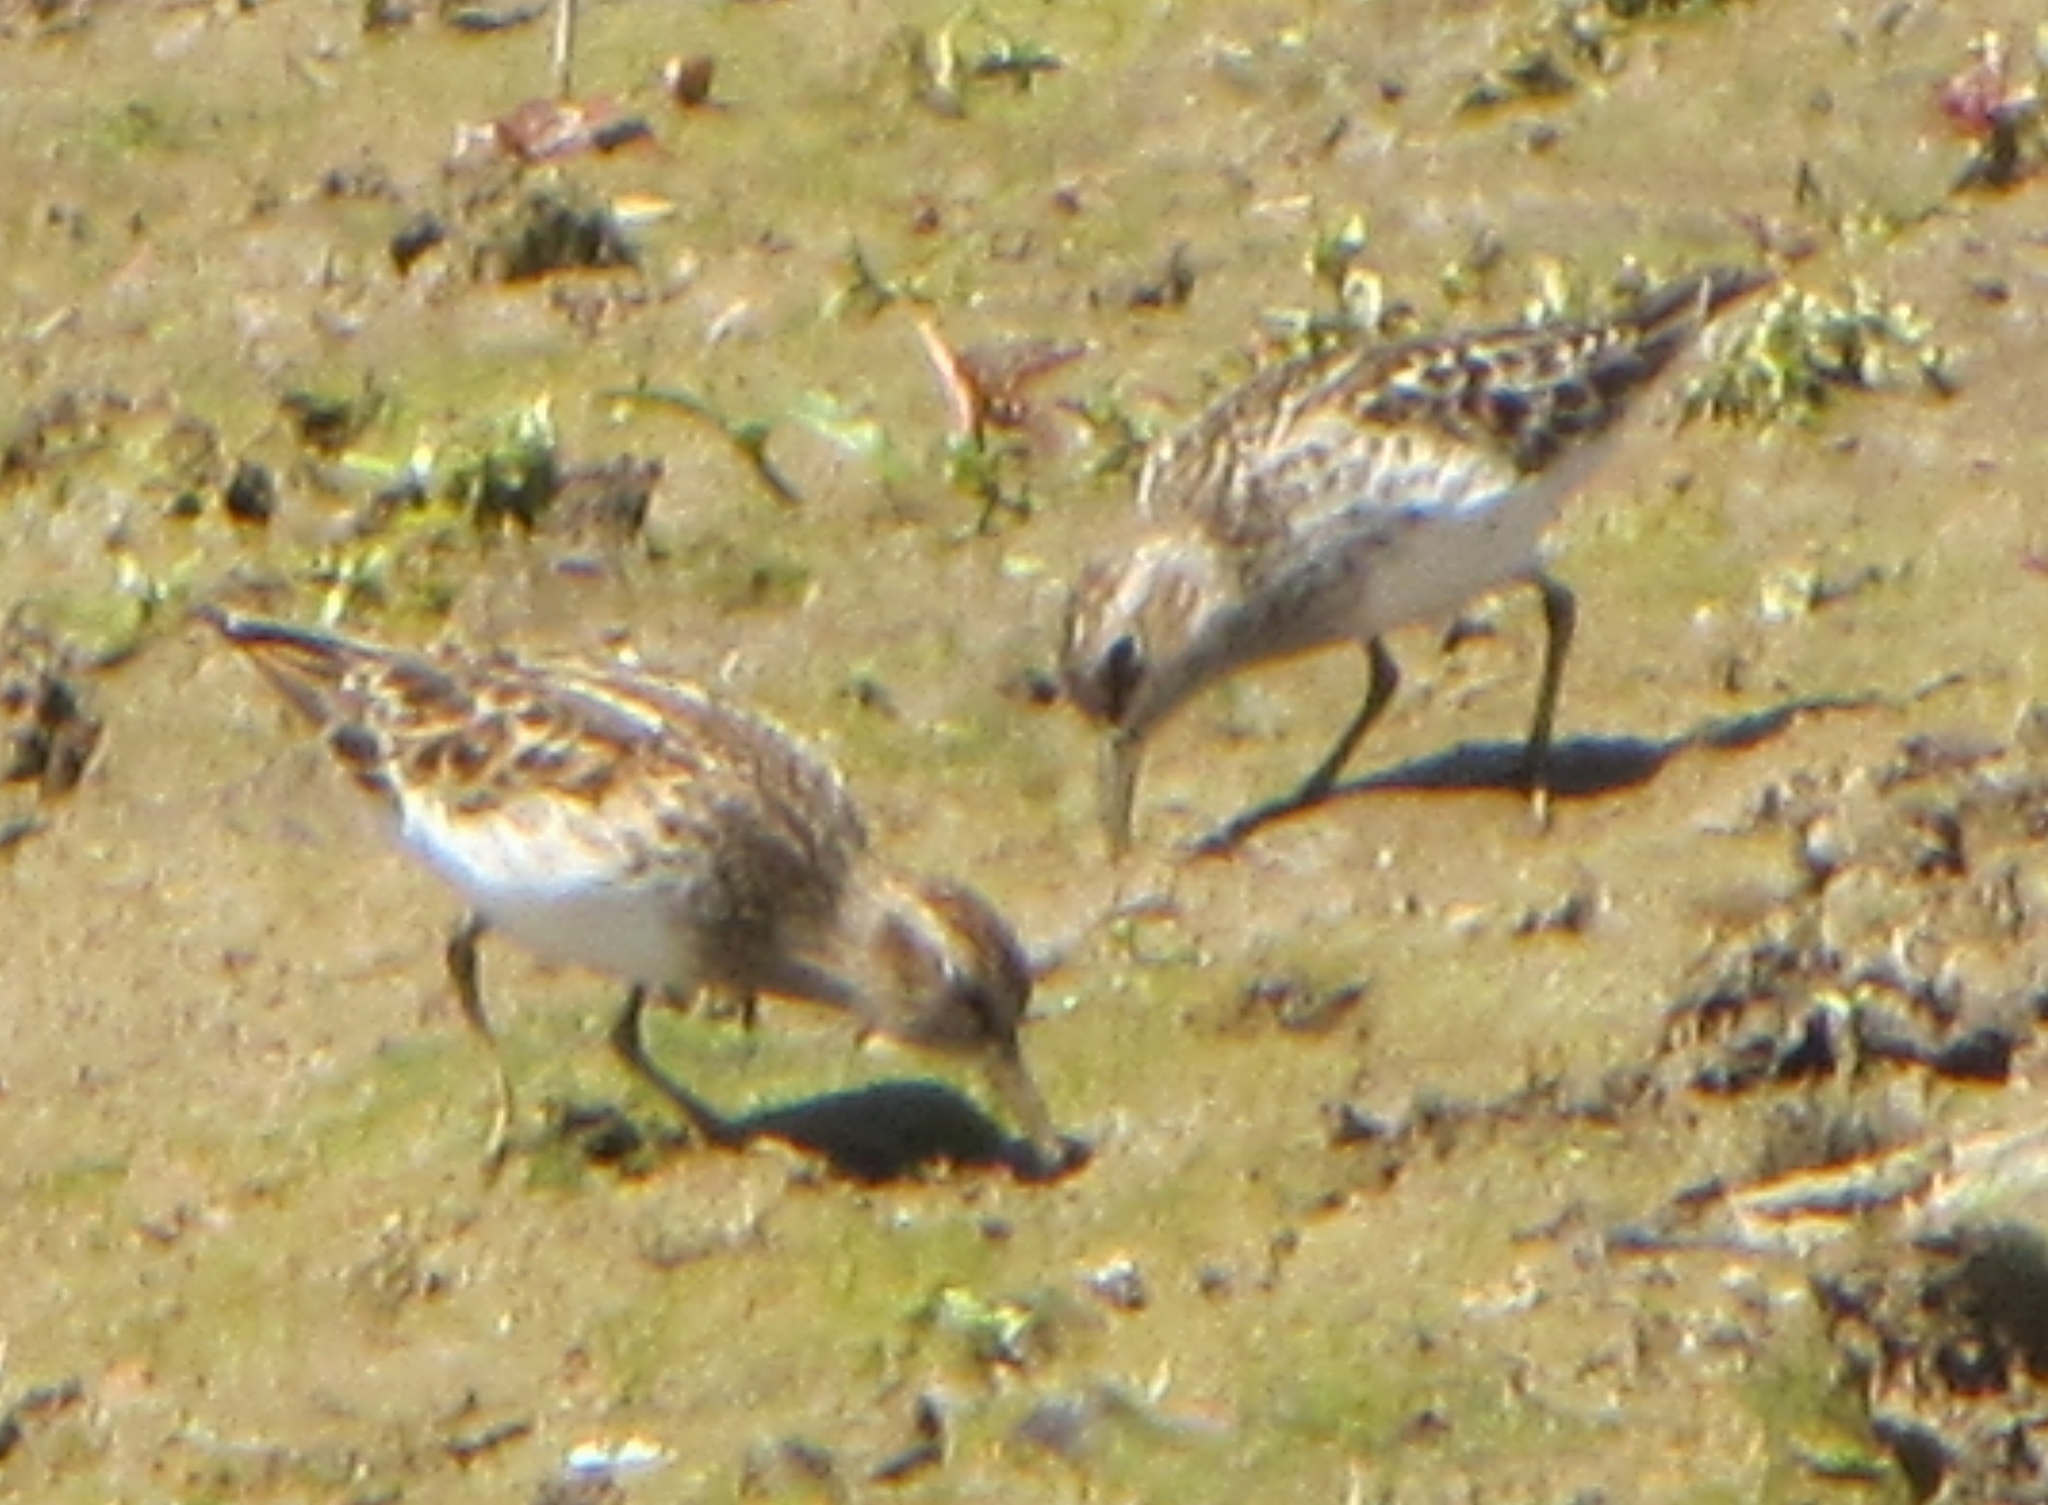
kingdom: Animalia
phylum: Chordata
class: Aves
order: Charadriiformes
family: Scolopacidae
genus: Calidris
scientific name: Calidris minutilla
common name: Least sandpiper
